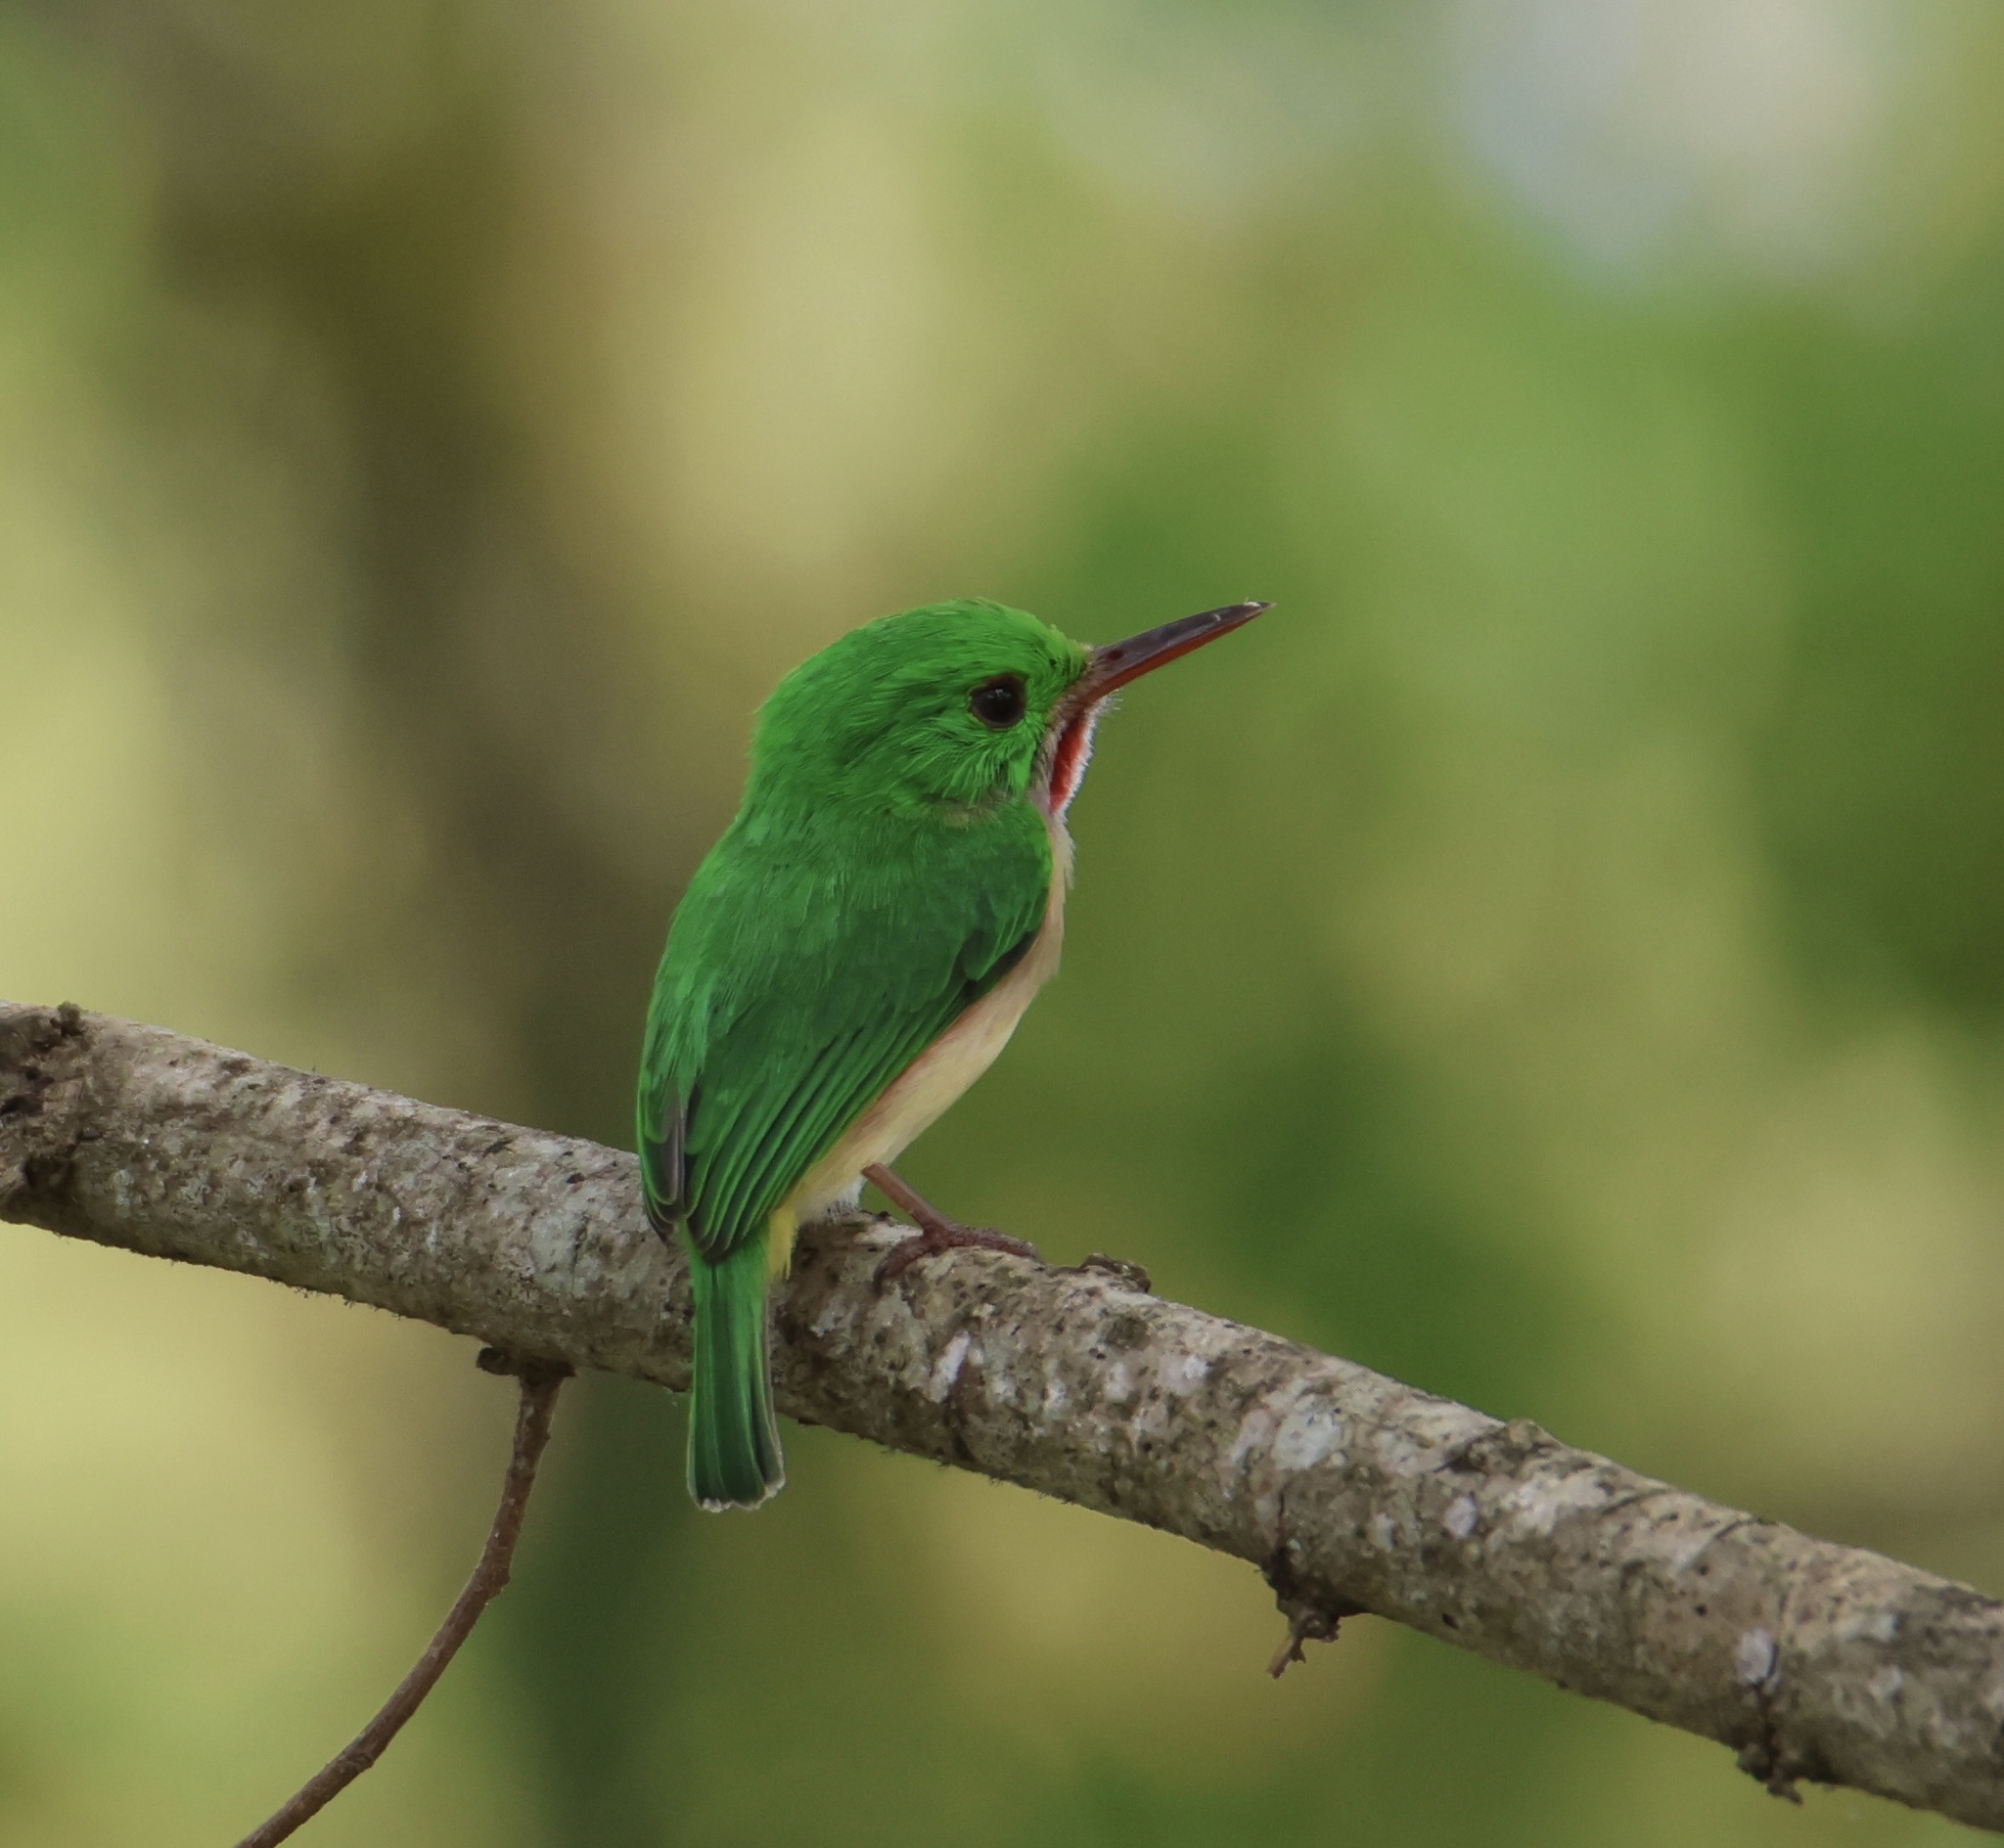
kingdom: Animalia
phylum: Chordata
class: Aves
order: Coraciiformes
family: Todidae
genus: Todus
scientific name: Todus subulatus
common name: Broad-billed tody
